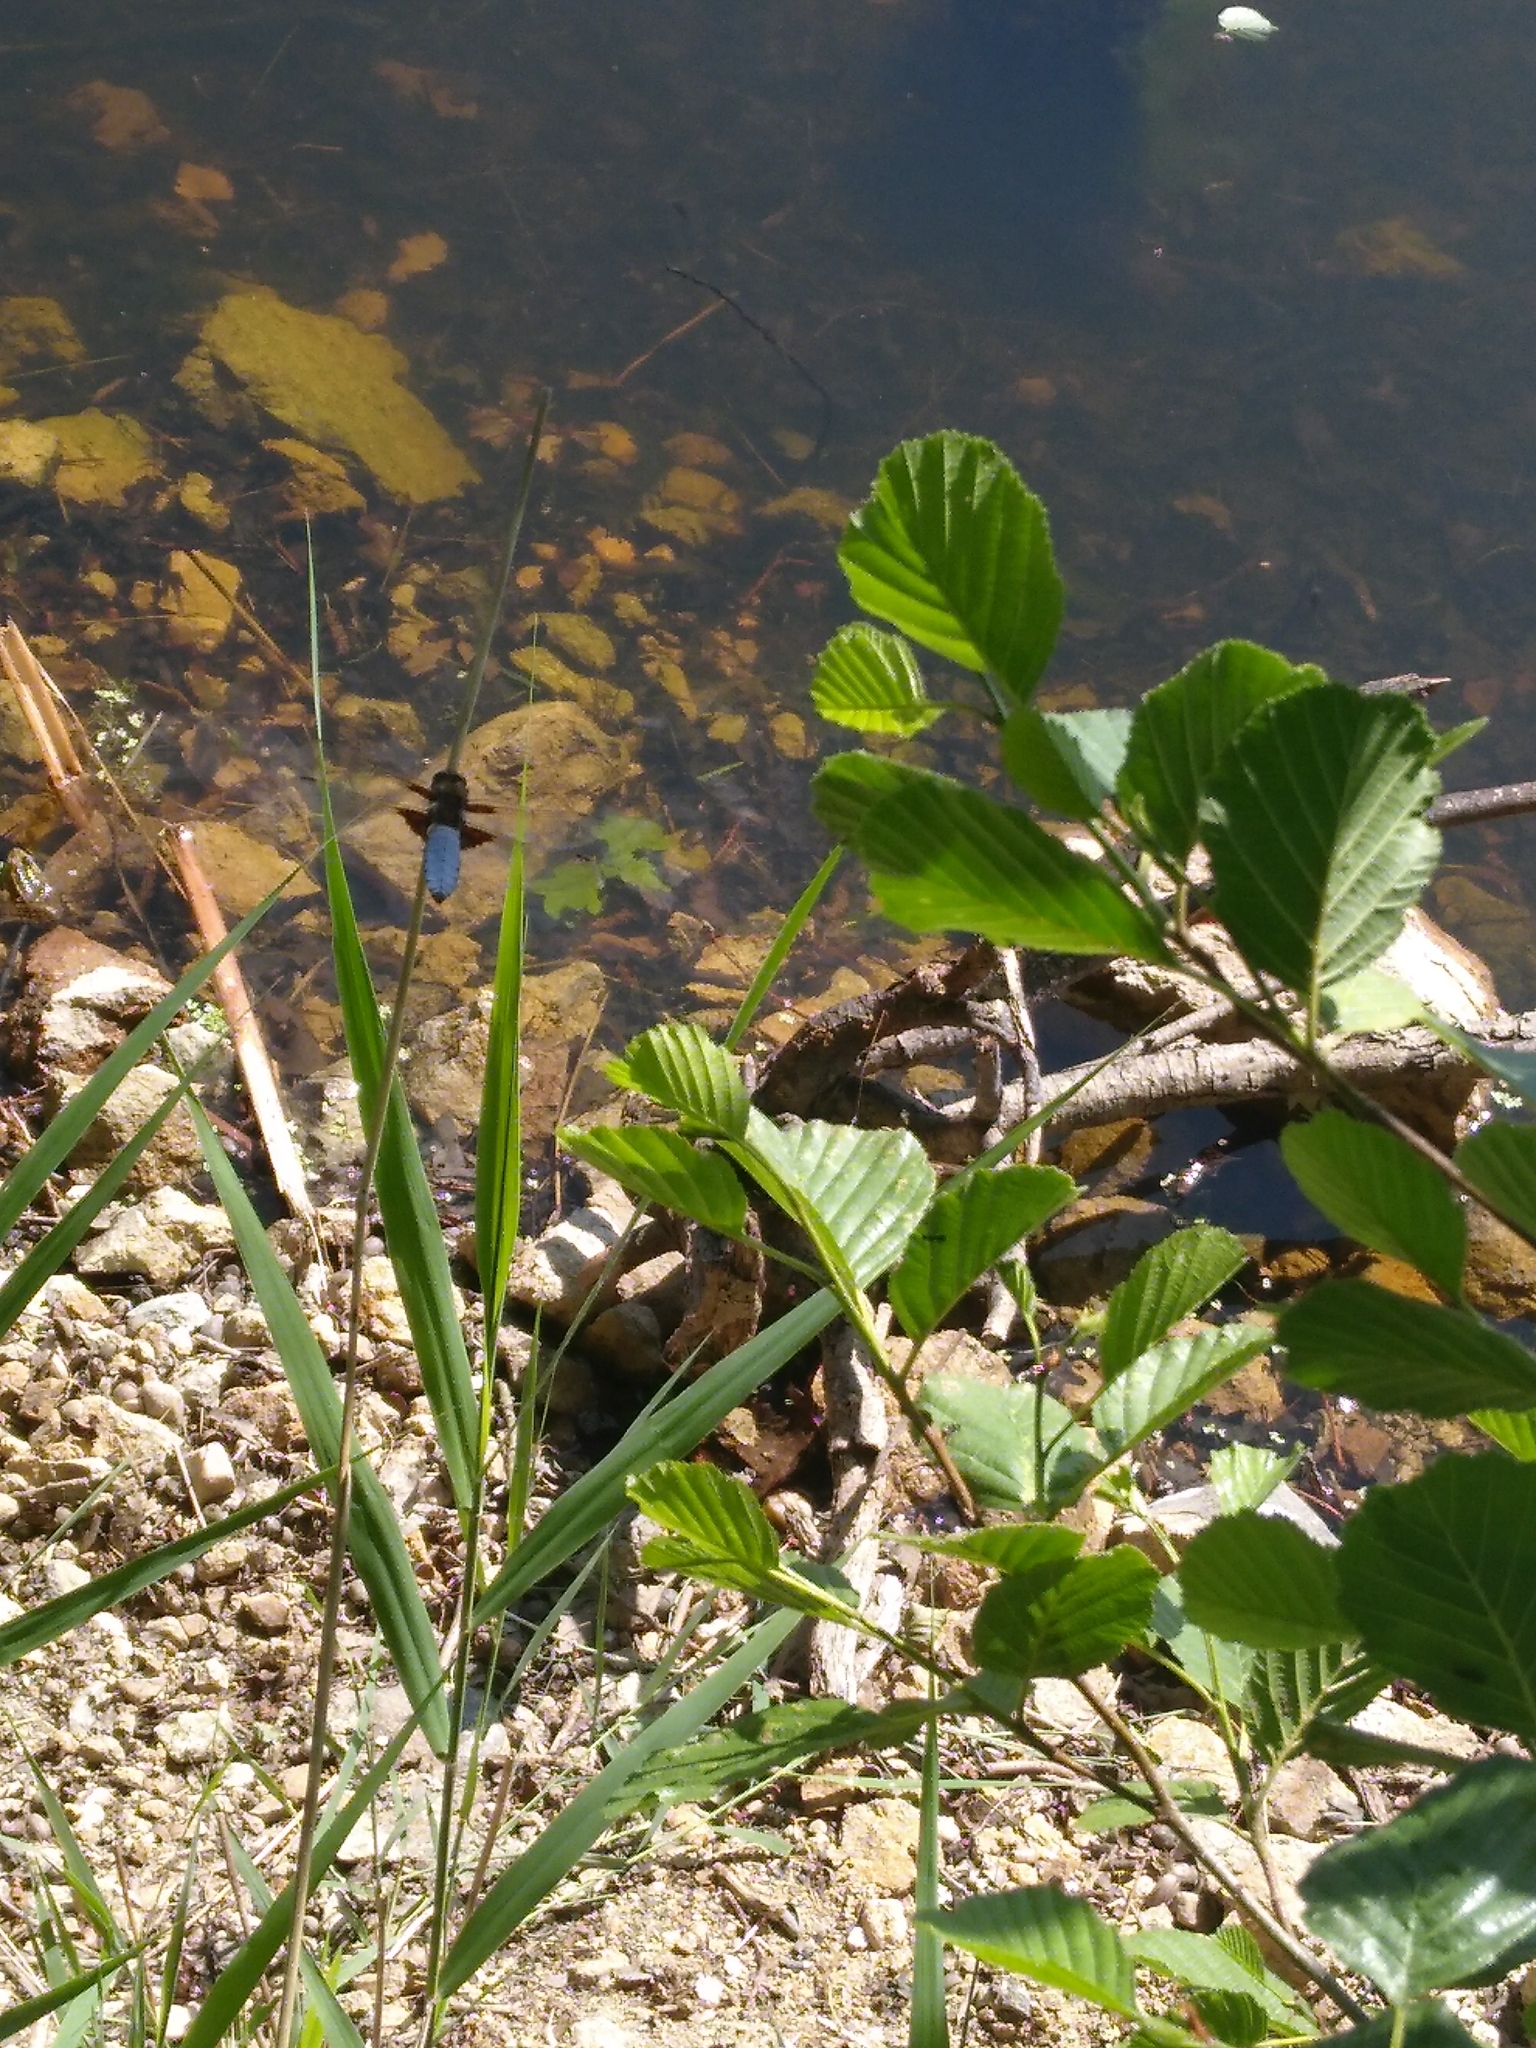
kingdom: Animalia
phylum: Arthropoda
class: Insecta
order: Odonata
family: Libellulidae
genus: Libellula
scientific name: Libellula depressa
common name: Broad-bodied chaser
